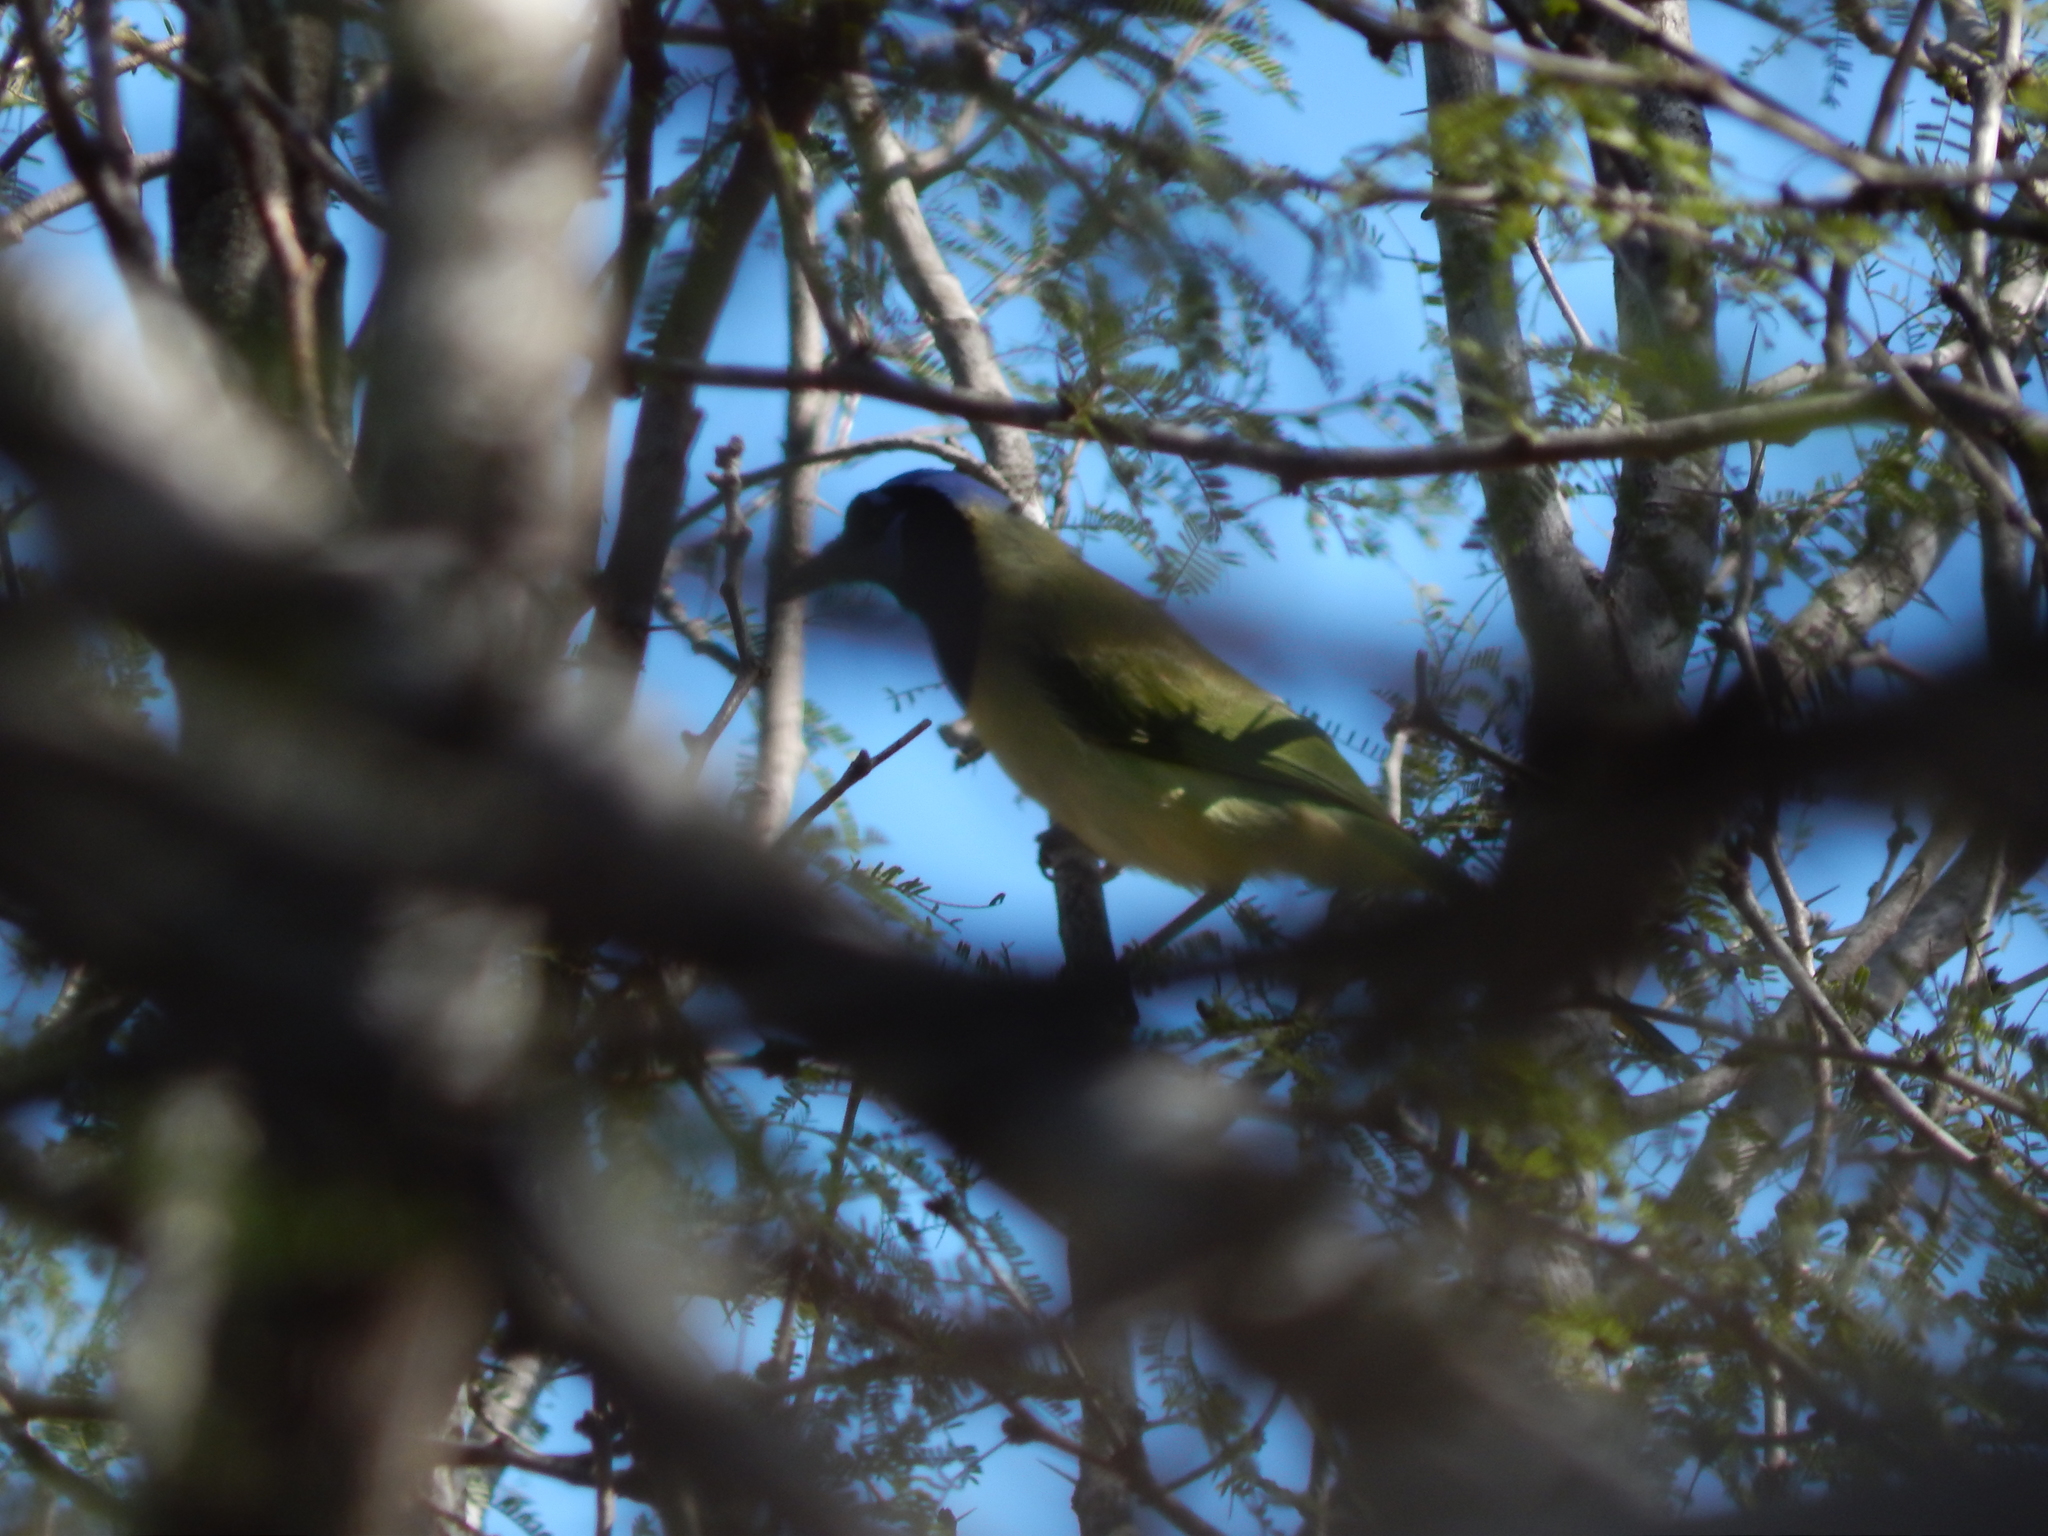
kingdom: Animalia
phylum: Chordata
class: Aves
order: Passeriformes
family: Corvidae
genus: Cyanocorax
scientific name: Cyanocorax yncas
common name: Green jay
